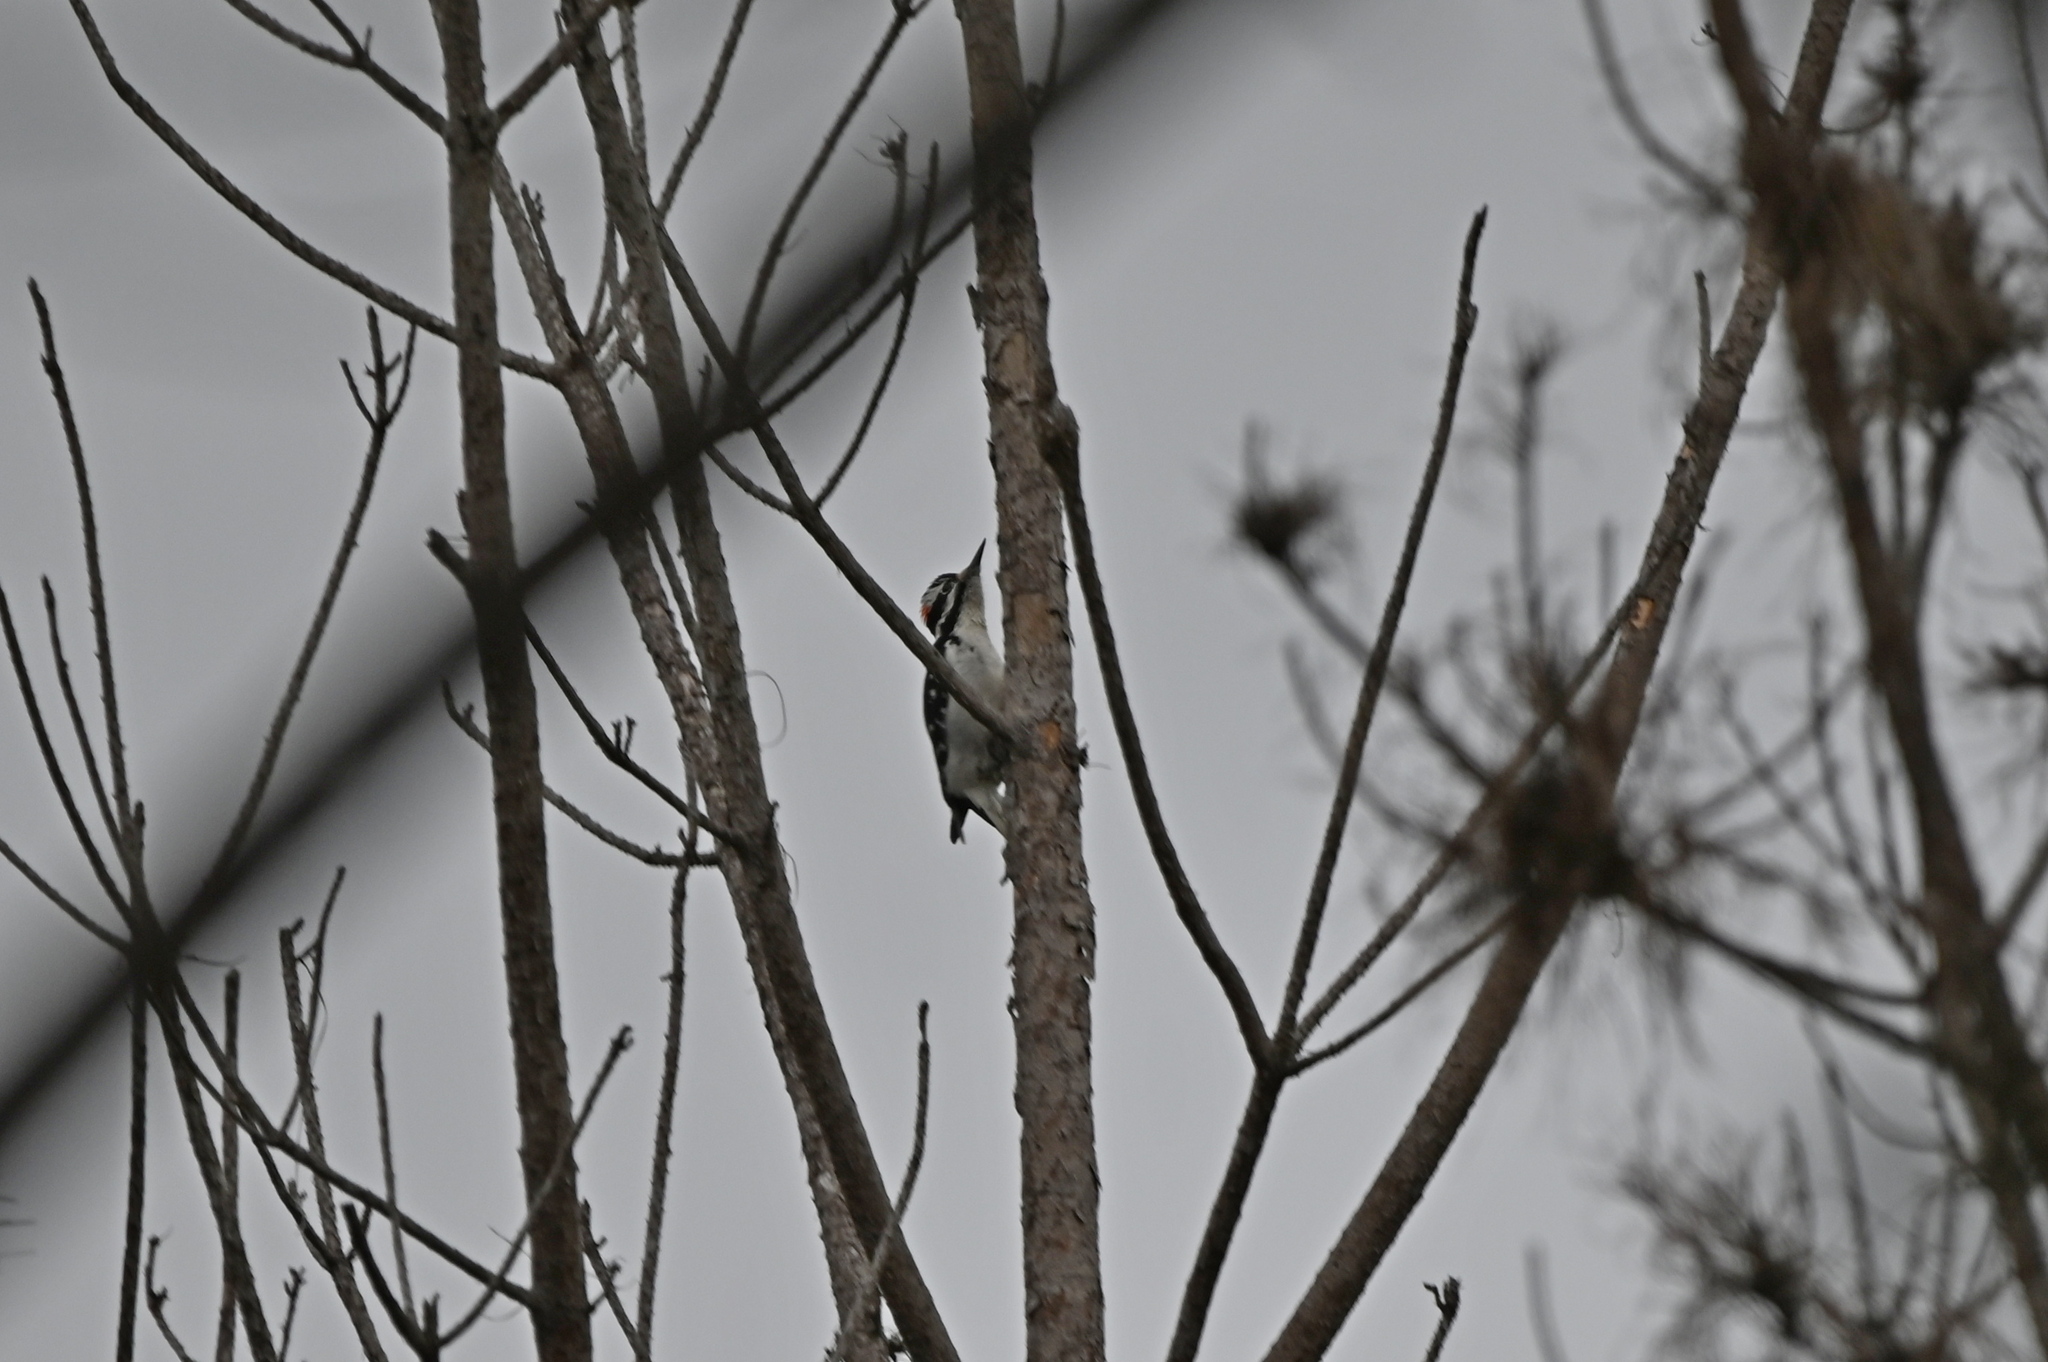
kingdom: Animalia
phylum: Chordata
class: Aves
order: Piciformes
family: Picidae
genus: Leuconotopicus
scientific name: Leuconotopicus villosus
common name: Hairy woodpecker
